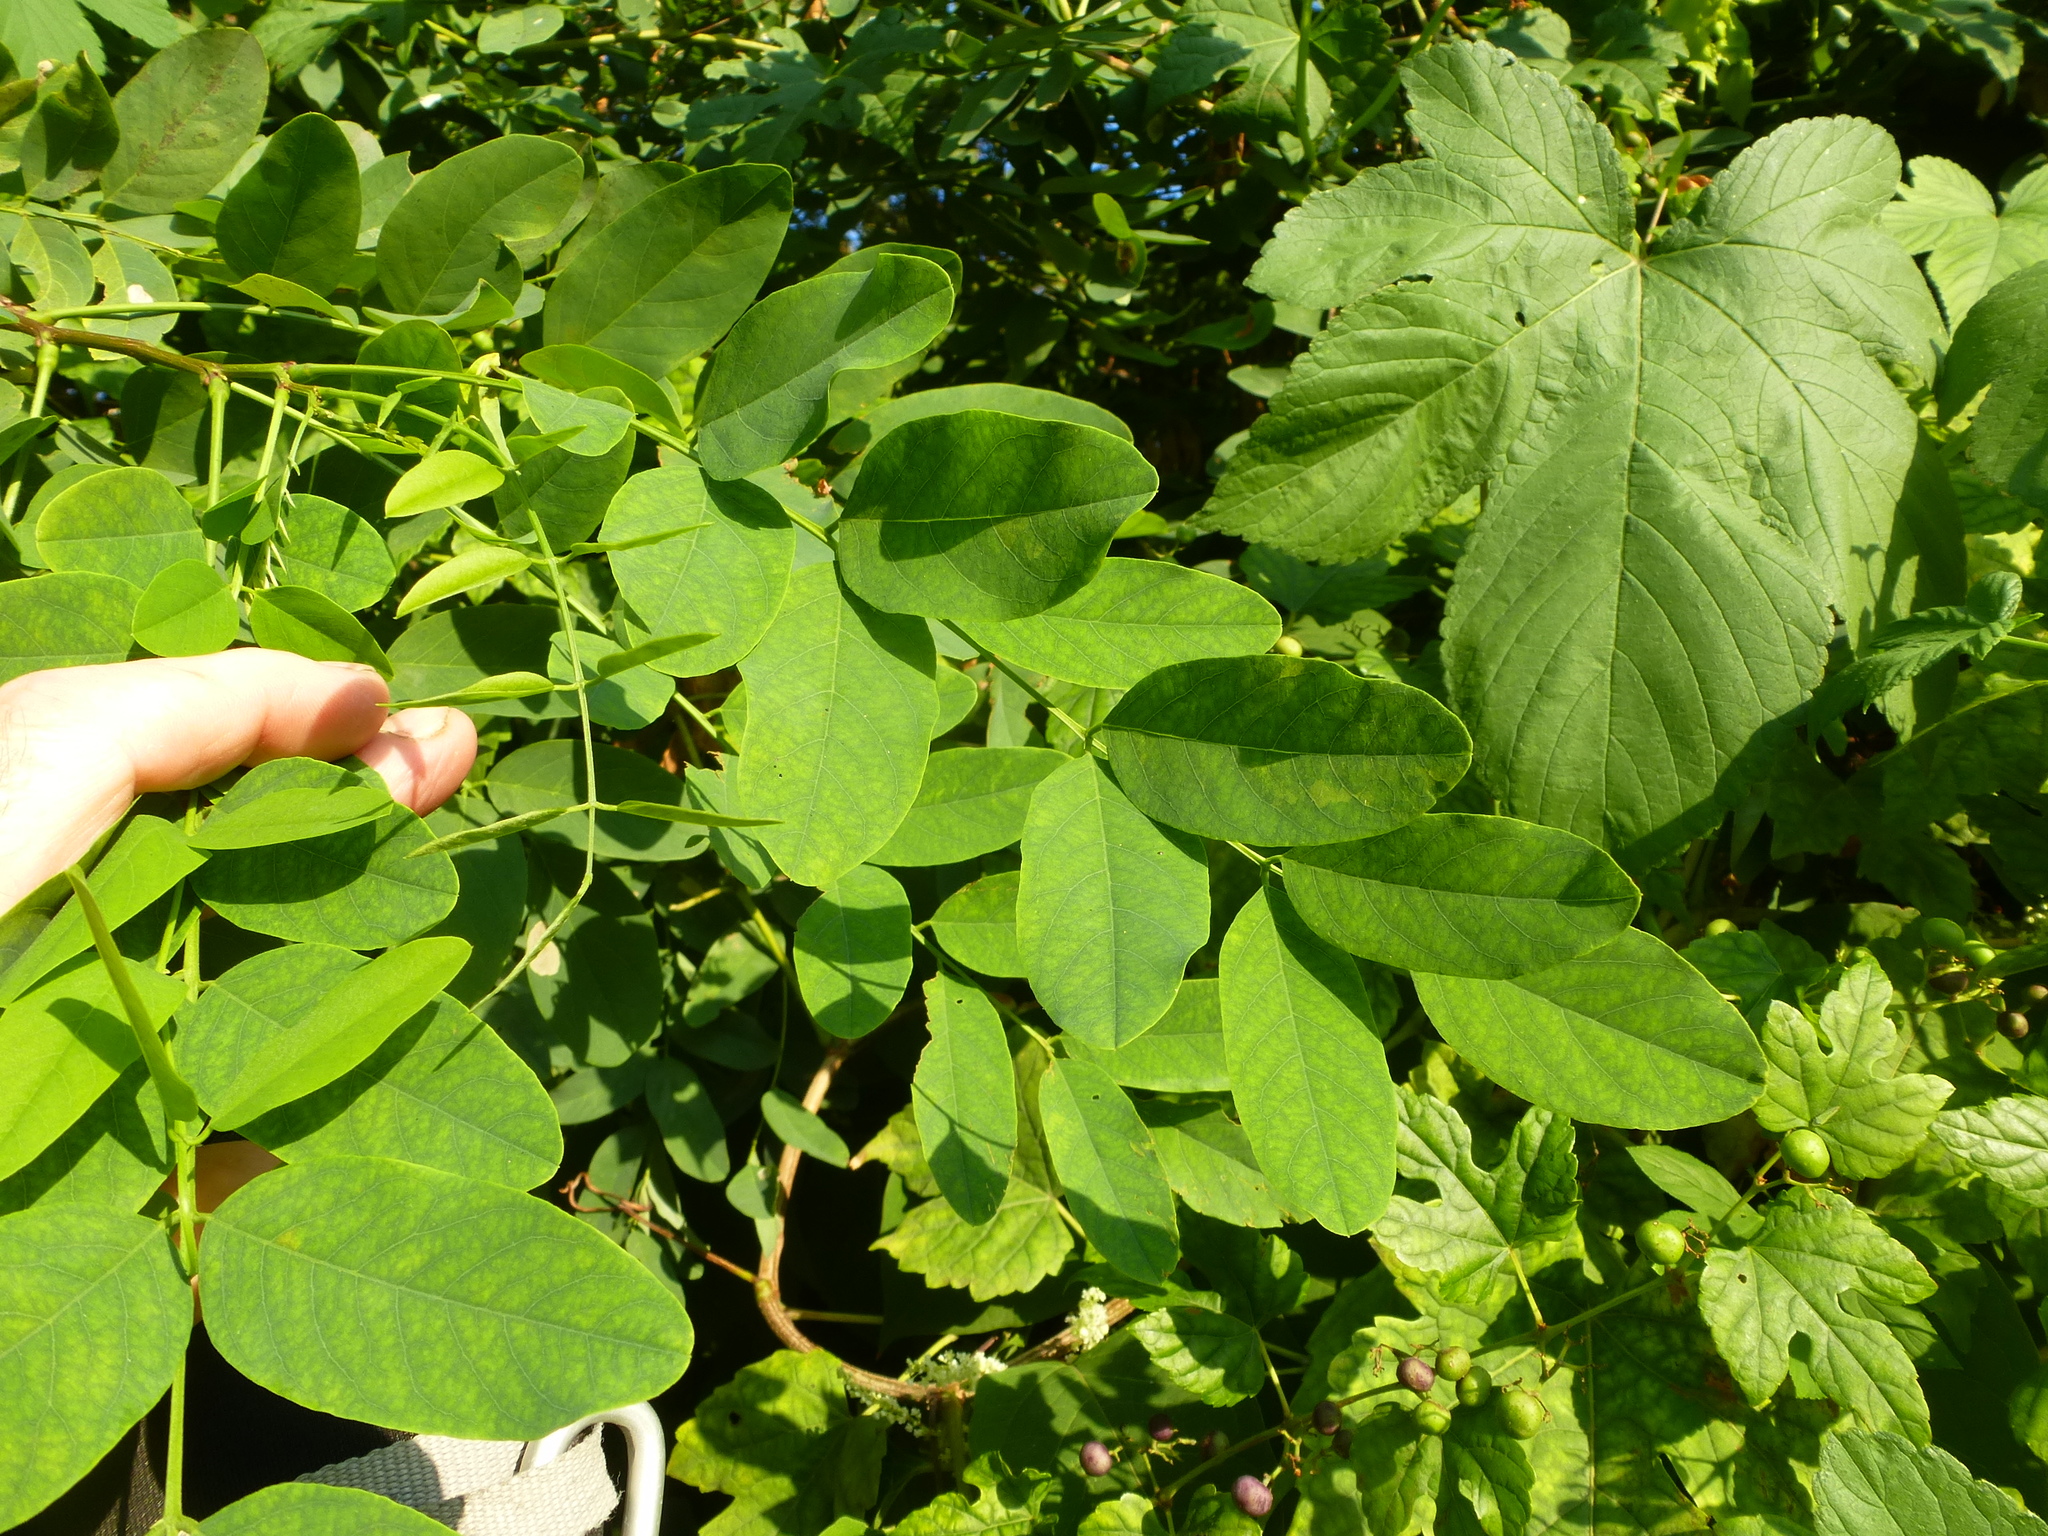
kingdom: Plantae
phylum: Tracheophyta
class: Magnoliopsida
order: Fabales
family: Fabaceae
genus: Robinia
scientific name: Robinia pseudoacacia
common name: Black locust
